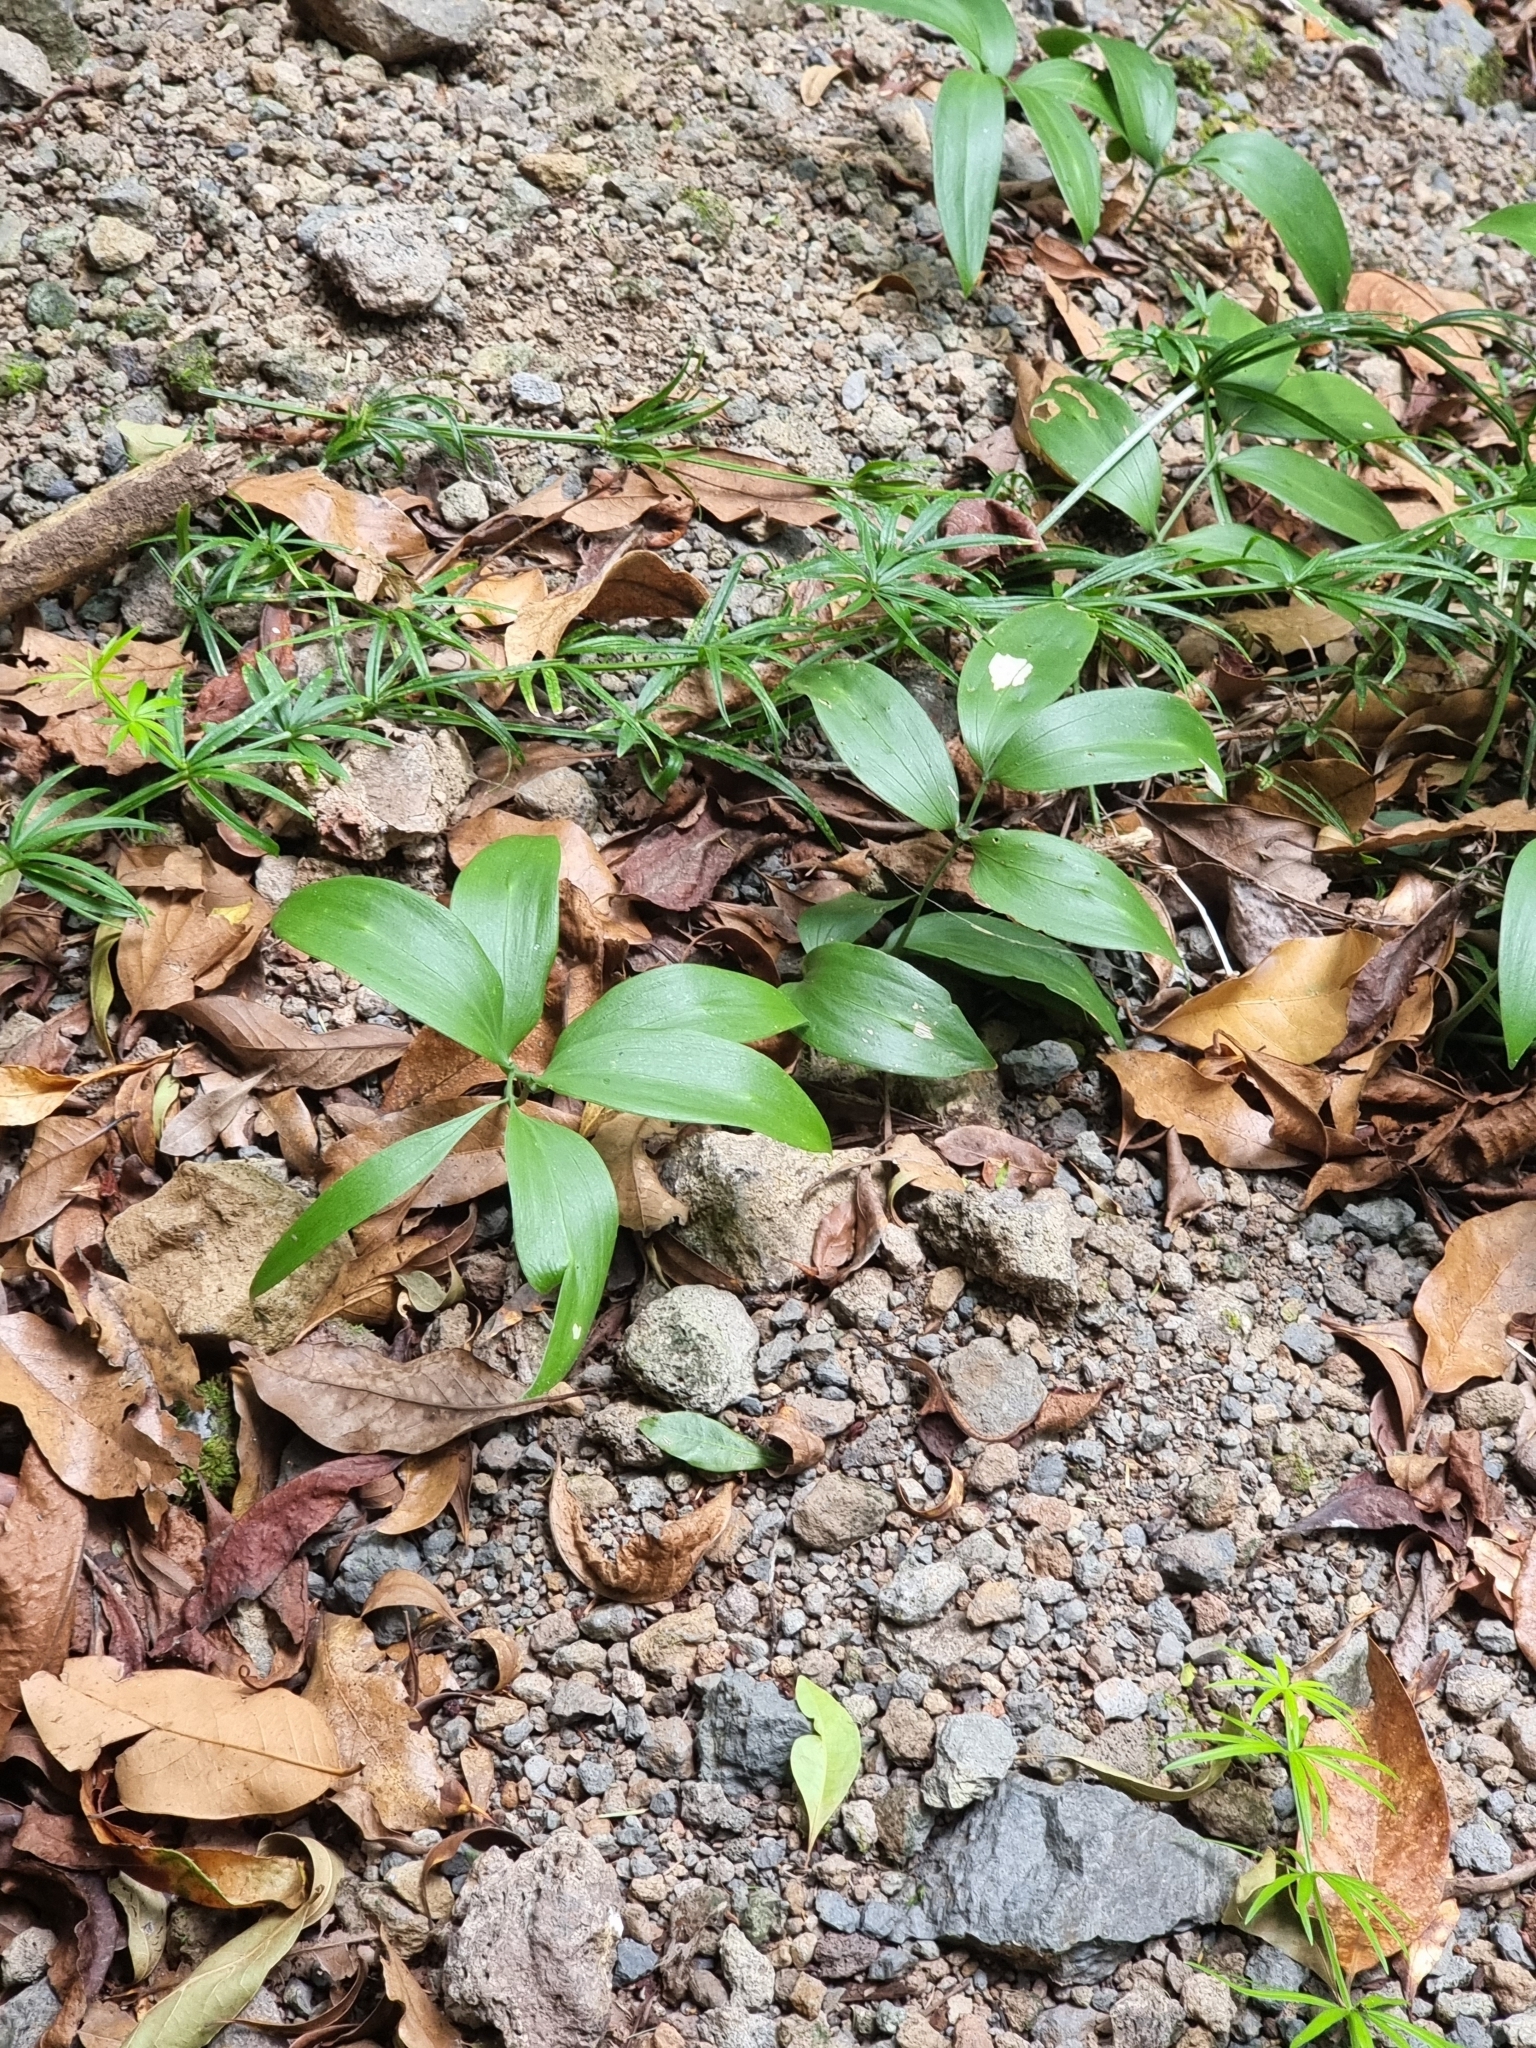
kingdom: Plantae
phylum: Tracheophyta
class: Liliopsida
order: Asparagales
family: Asparagaceae
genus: Ruscus
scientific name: Ruscus streptophyllus
